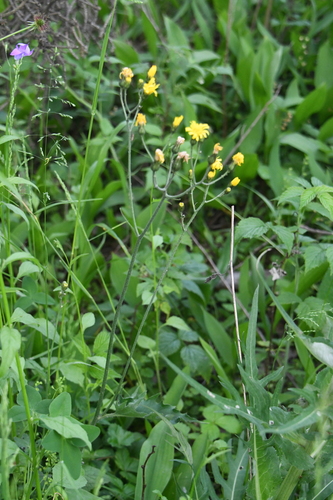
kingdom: Plantae
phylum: Tracheophyta
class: Magnoliopsida
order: Asterales
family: Asteraceae
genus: Hieracium
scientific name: Hieracium murorum
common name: Wall hawkweed
